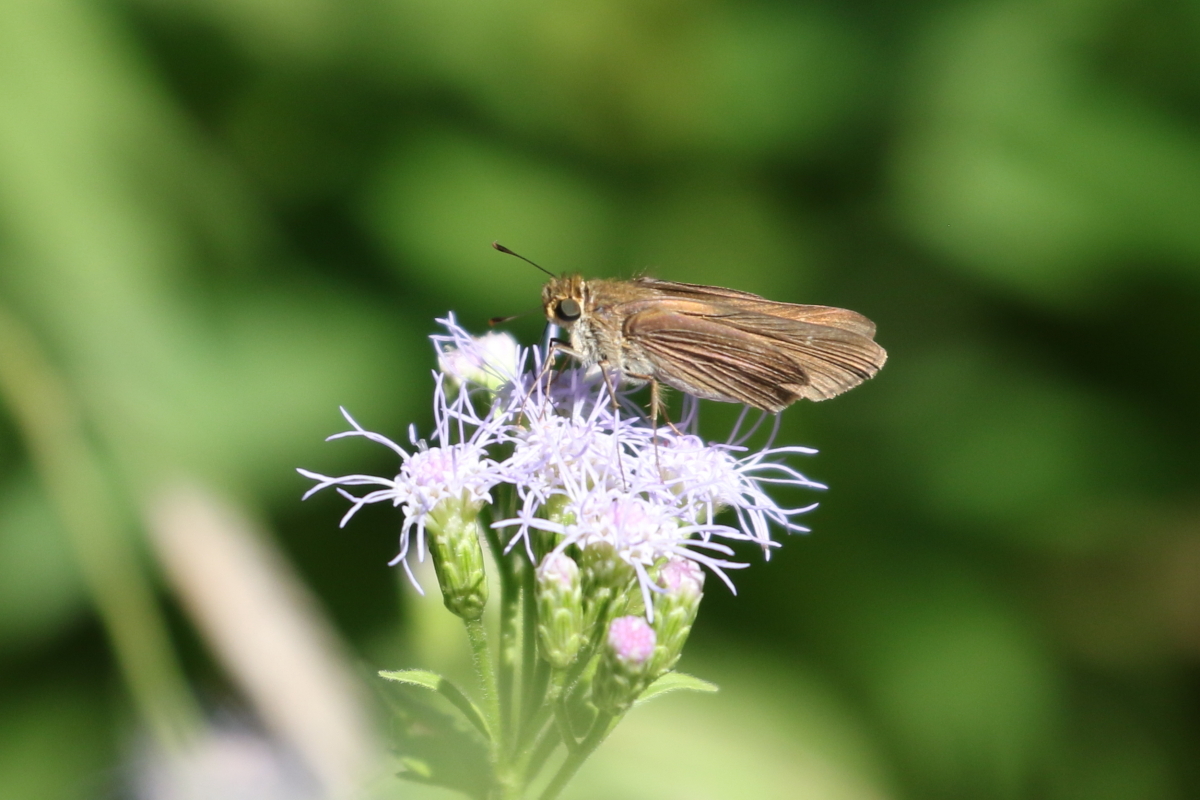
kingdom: Animalia
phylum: Arthropoda
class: Insecta
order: Lepidoptera
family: Hesperiidae
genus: Panoquina
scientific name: Panoquina ocola
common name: Ocola skipper
